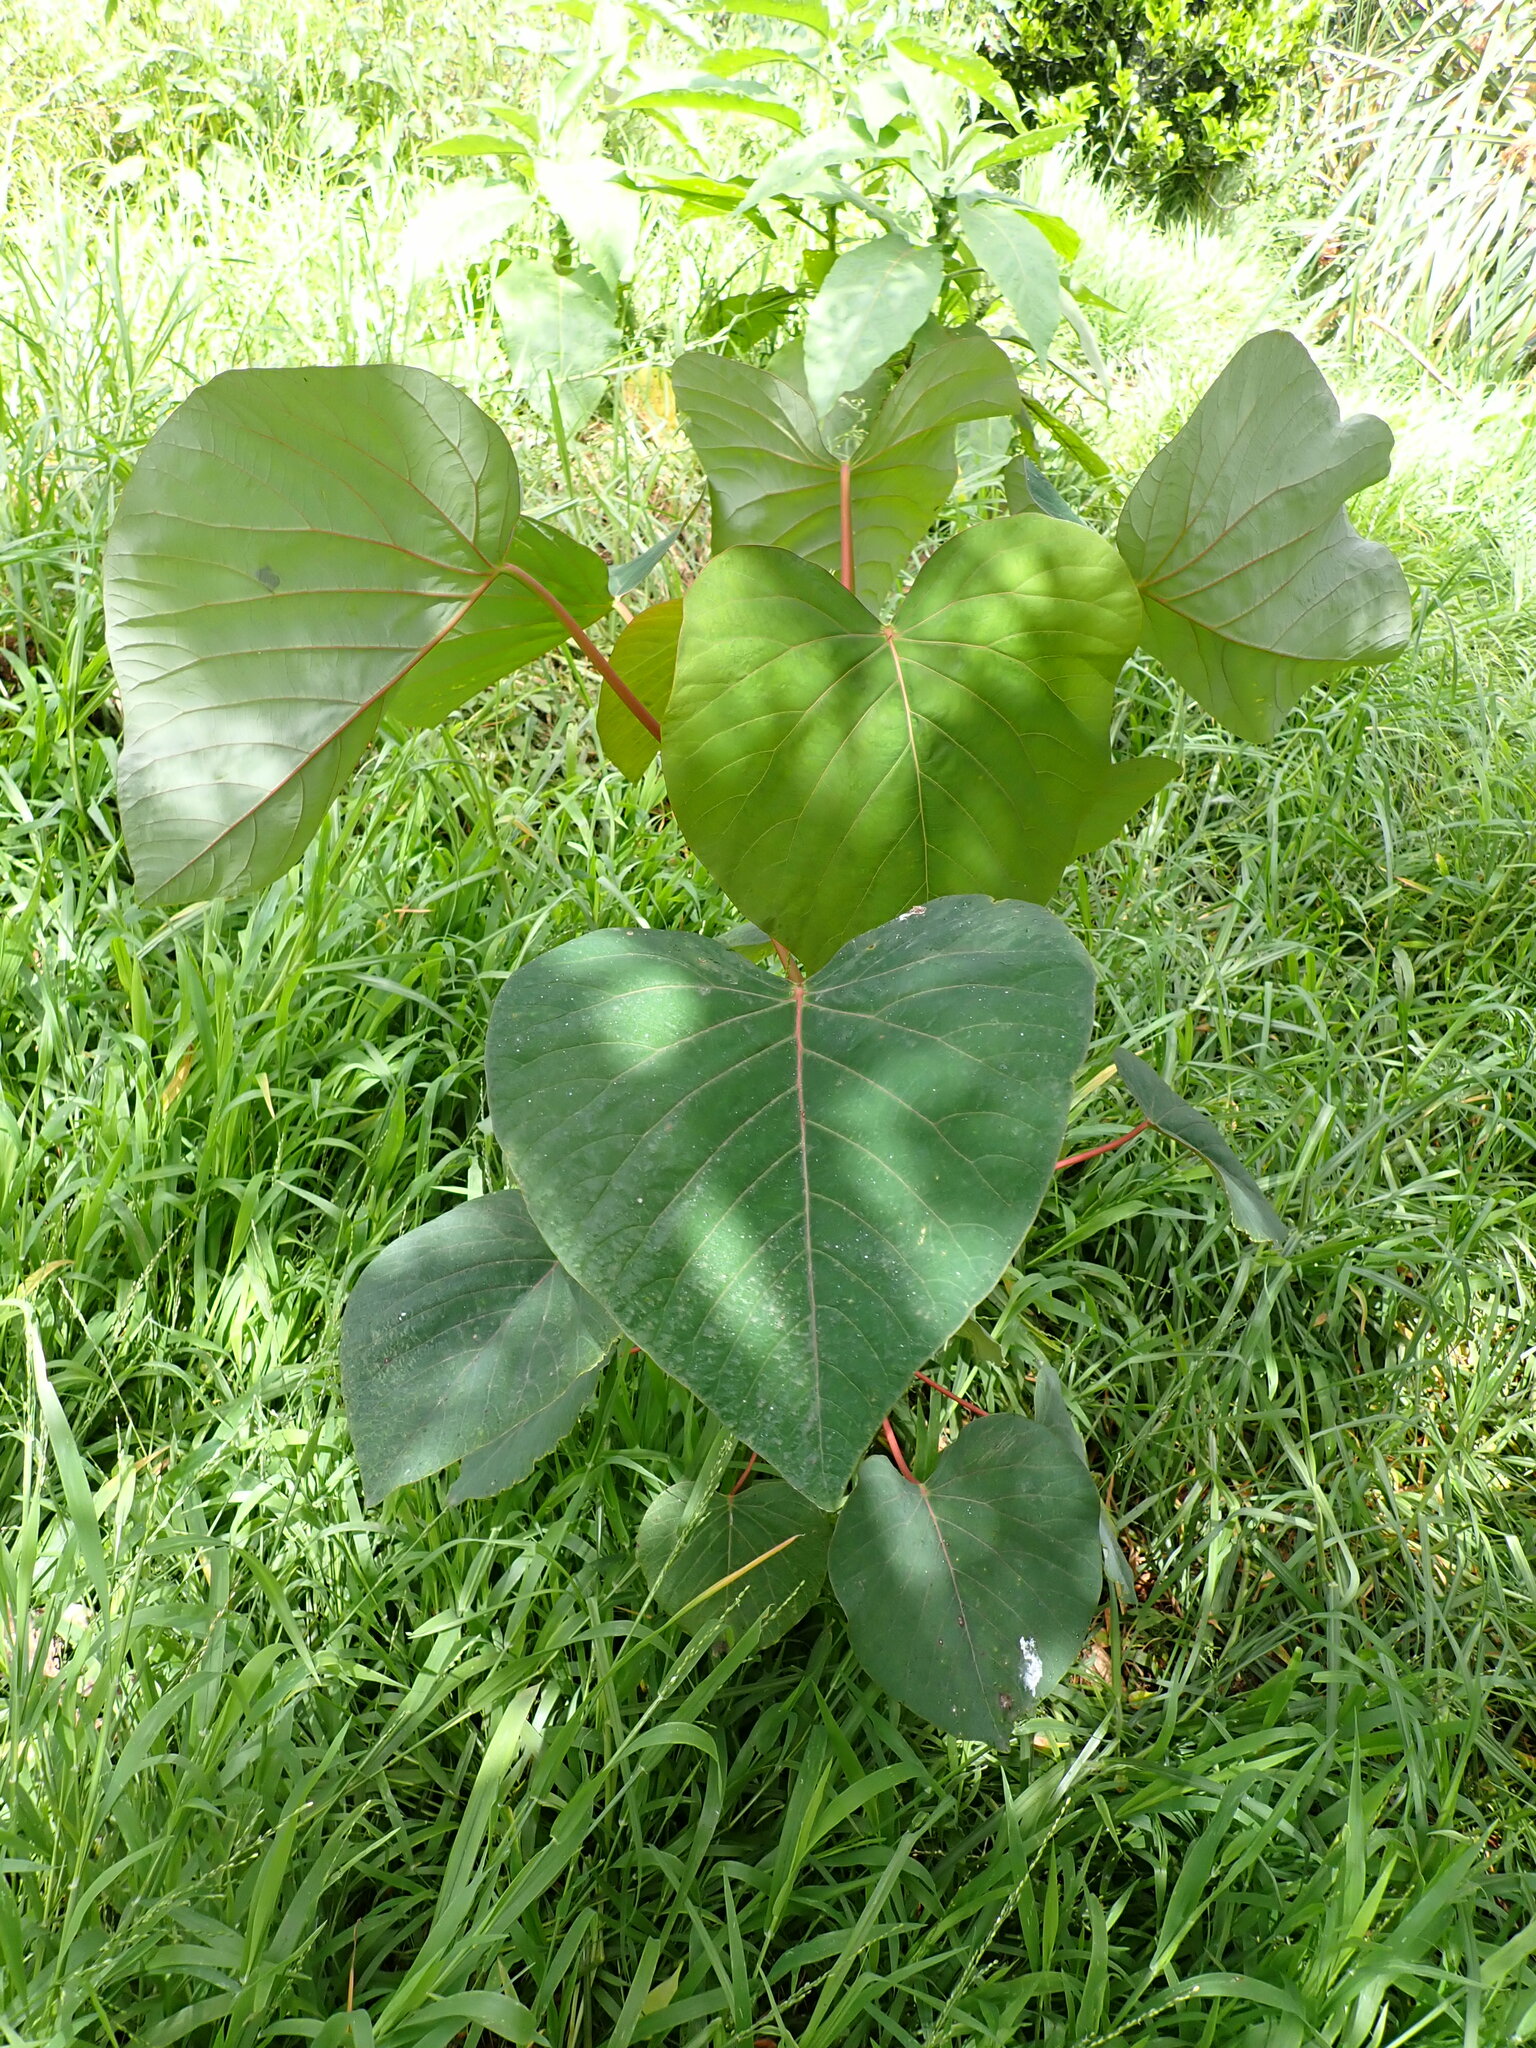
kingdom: Plantae
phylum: Tracheophyta
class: Magnoliopsida
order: Malpighiales
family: Euphorbiaceae
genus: Homalanthus
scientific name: Homalanthus populifolius
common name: Queensland poplar
